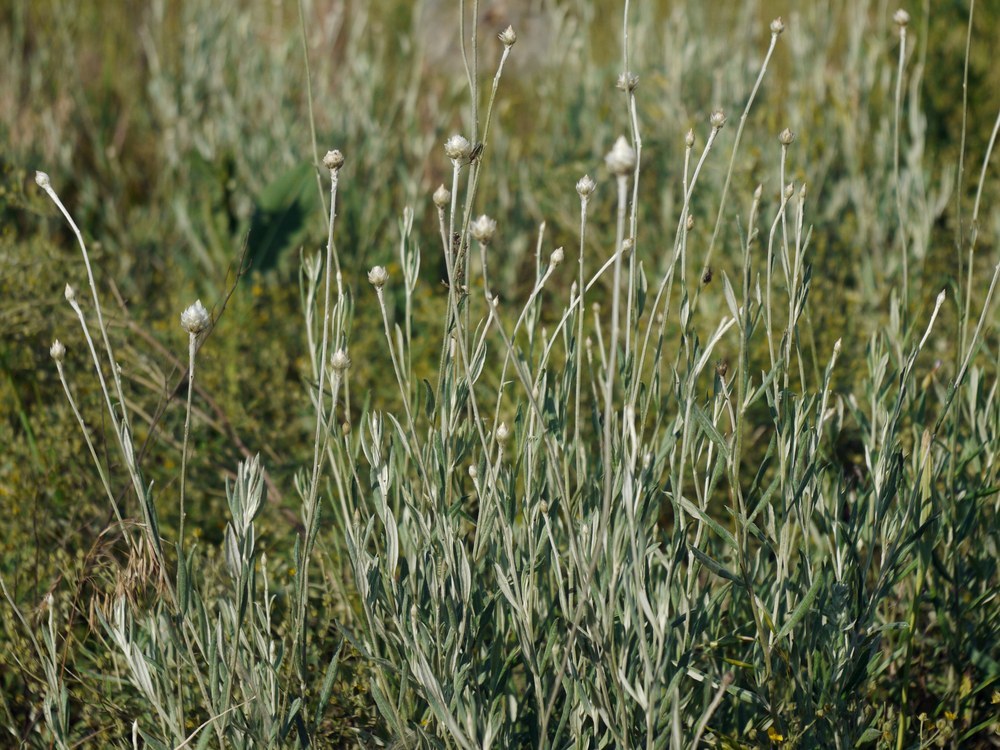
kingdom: Plantae
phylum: Tracheophyta
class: Magnoliopsida
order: Asterales
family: Asteraceae
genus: Xeranthemum
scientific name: Xeranthemum annuum
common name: Immortelle
